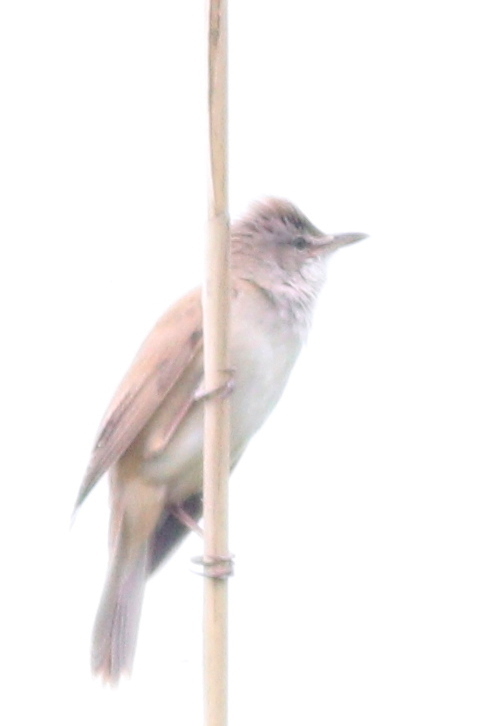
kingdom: Animalia
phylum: Chordata
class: Aves
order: Passeriformes
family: Acrocephalidae
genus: Acrocephalus
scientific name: Acrocephalus arundinaceus
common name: Great reed warbler
